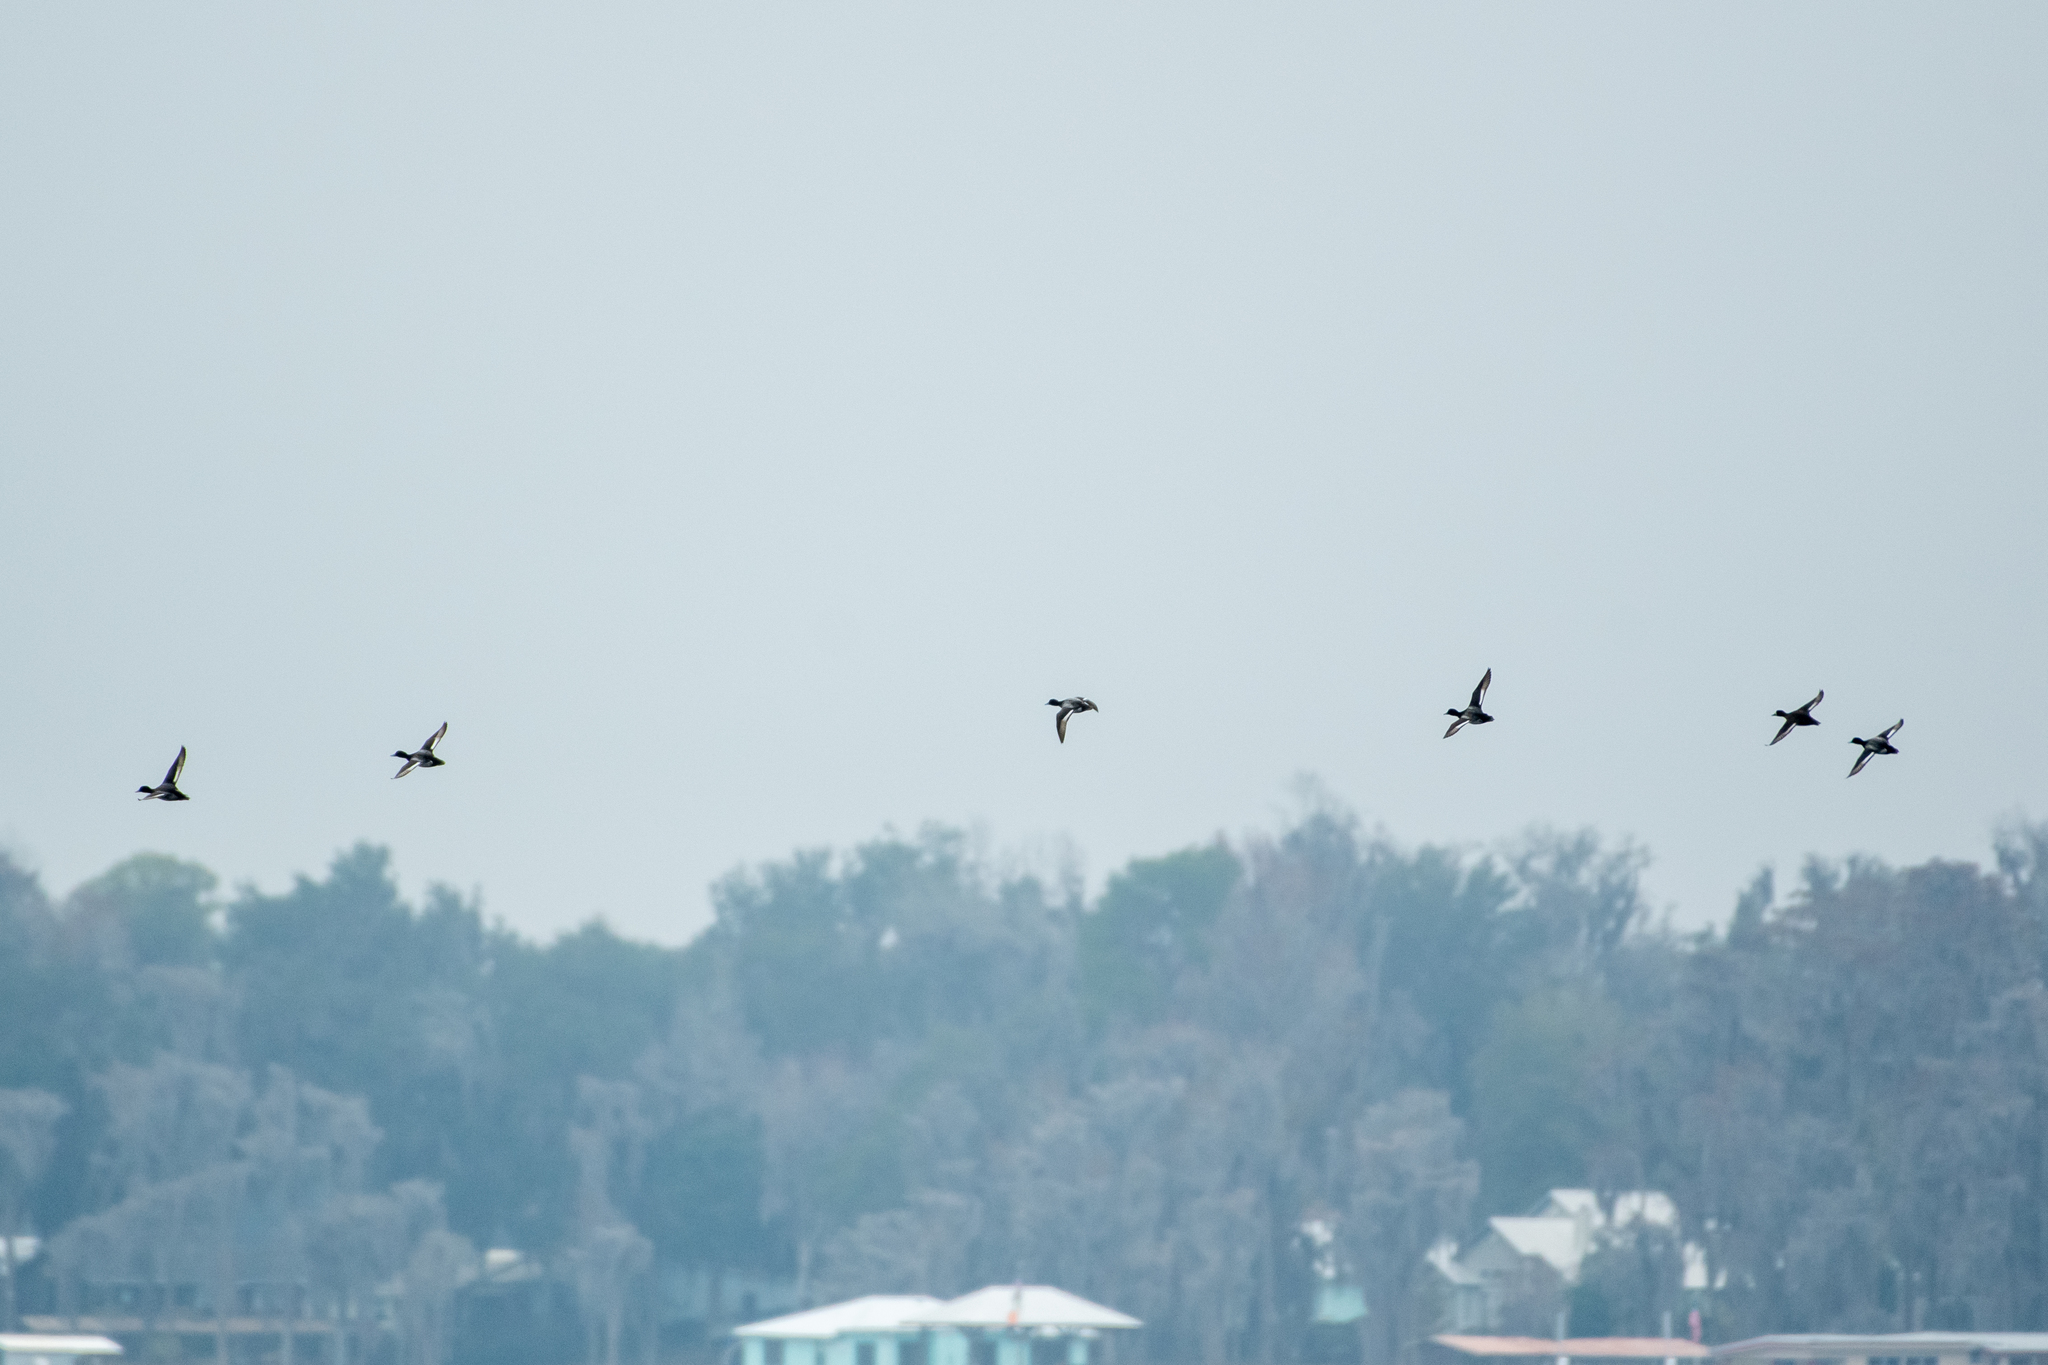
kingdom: Animalia
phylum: Chordata
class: Aves
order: Anseriformes
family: Anatidae
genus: Aythya
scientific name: Aythya affinis
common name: Lesser scaup
